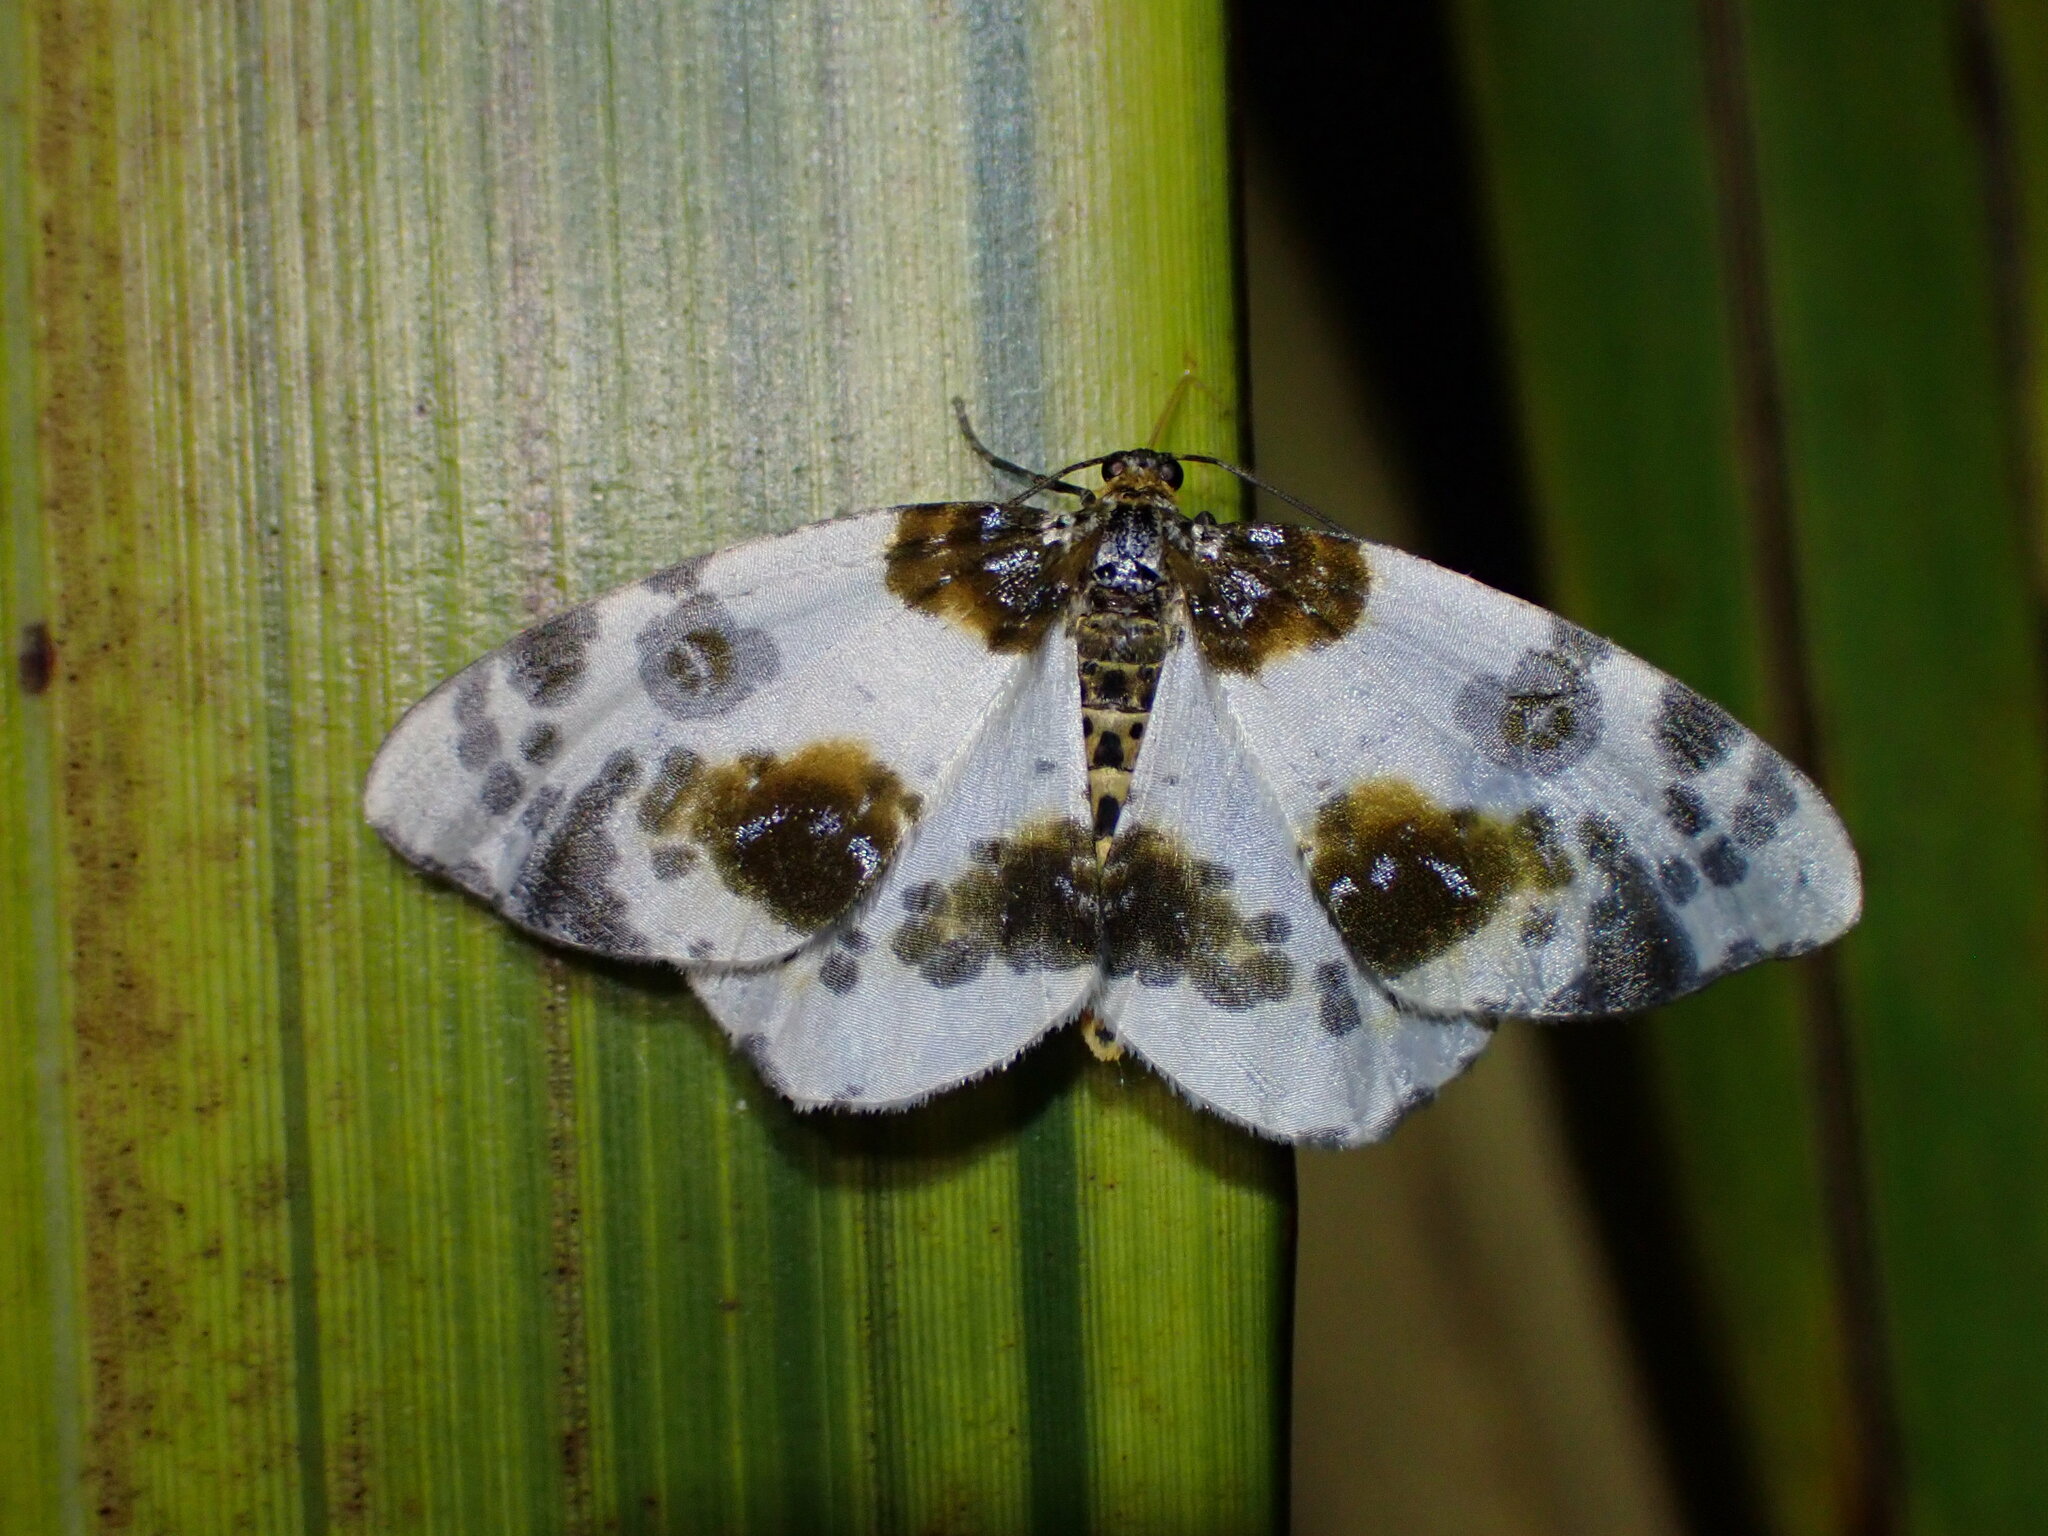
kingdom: Animalia
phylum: Arthropoda
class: Insecta
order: Lepidoptera
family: Geometridae
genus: Abraxas
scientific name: Abraxas sylvata
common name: Clouded magpie
